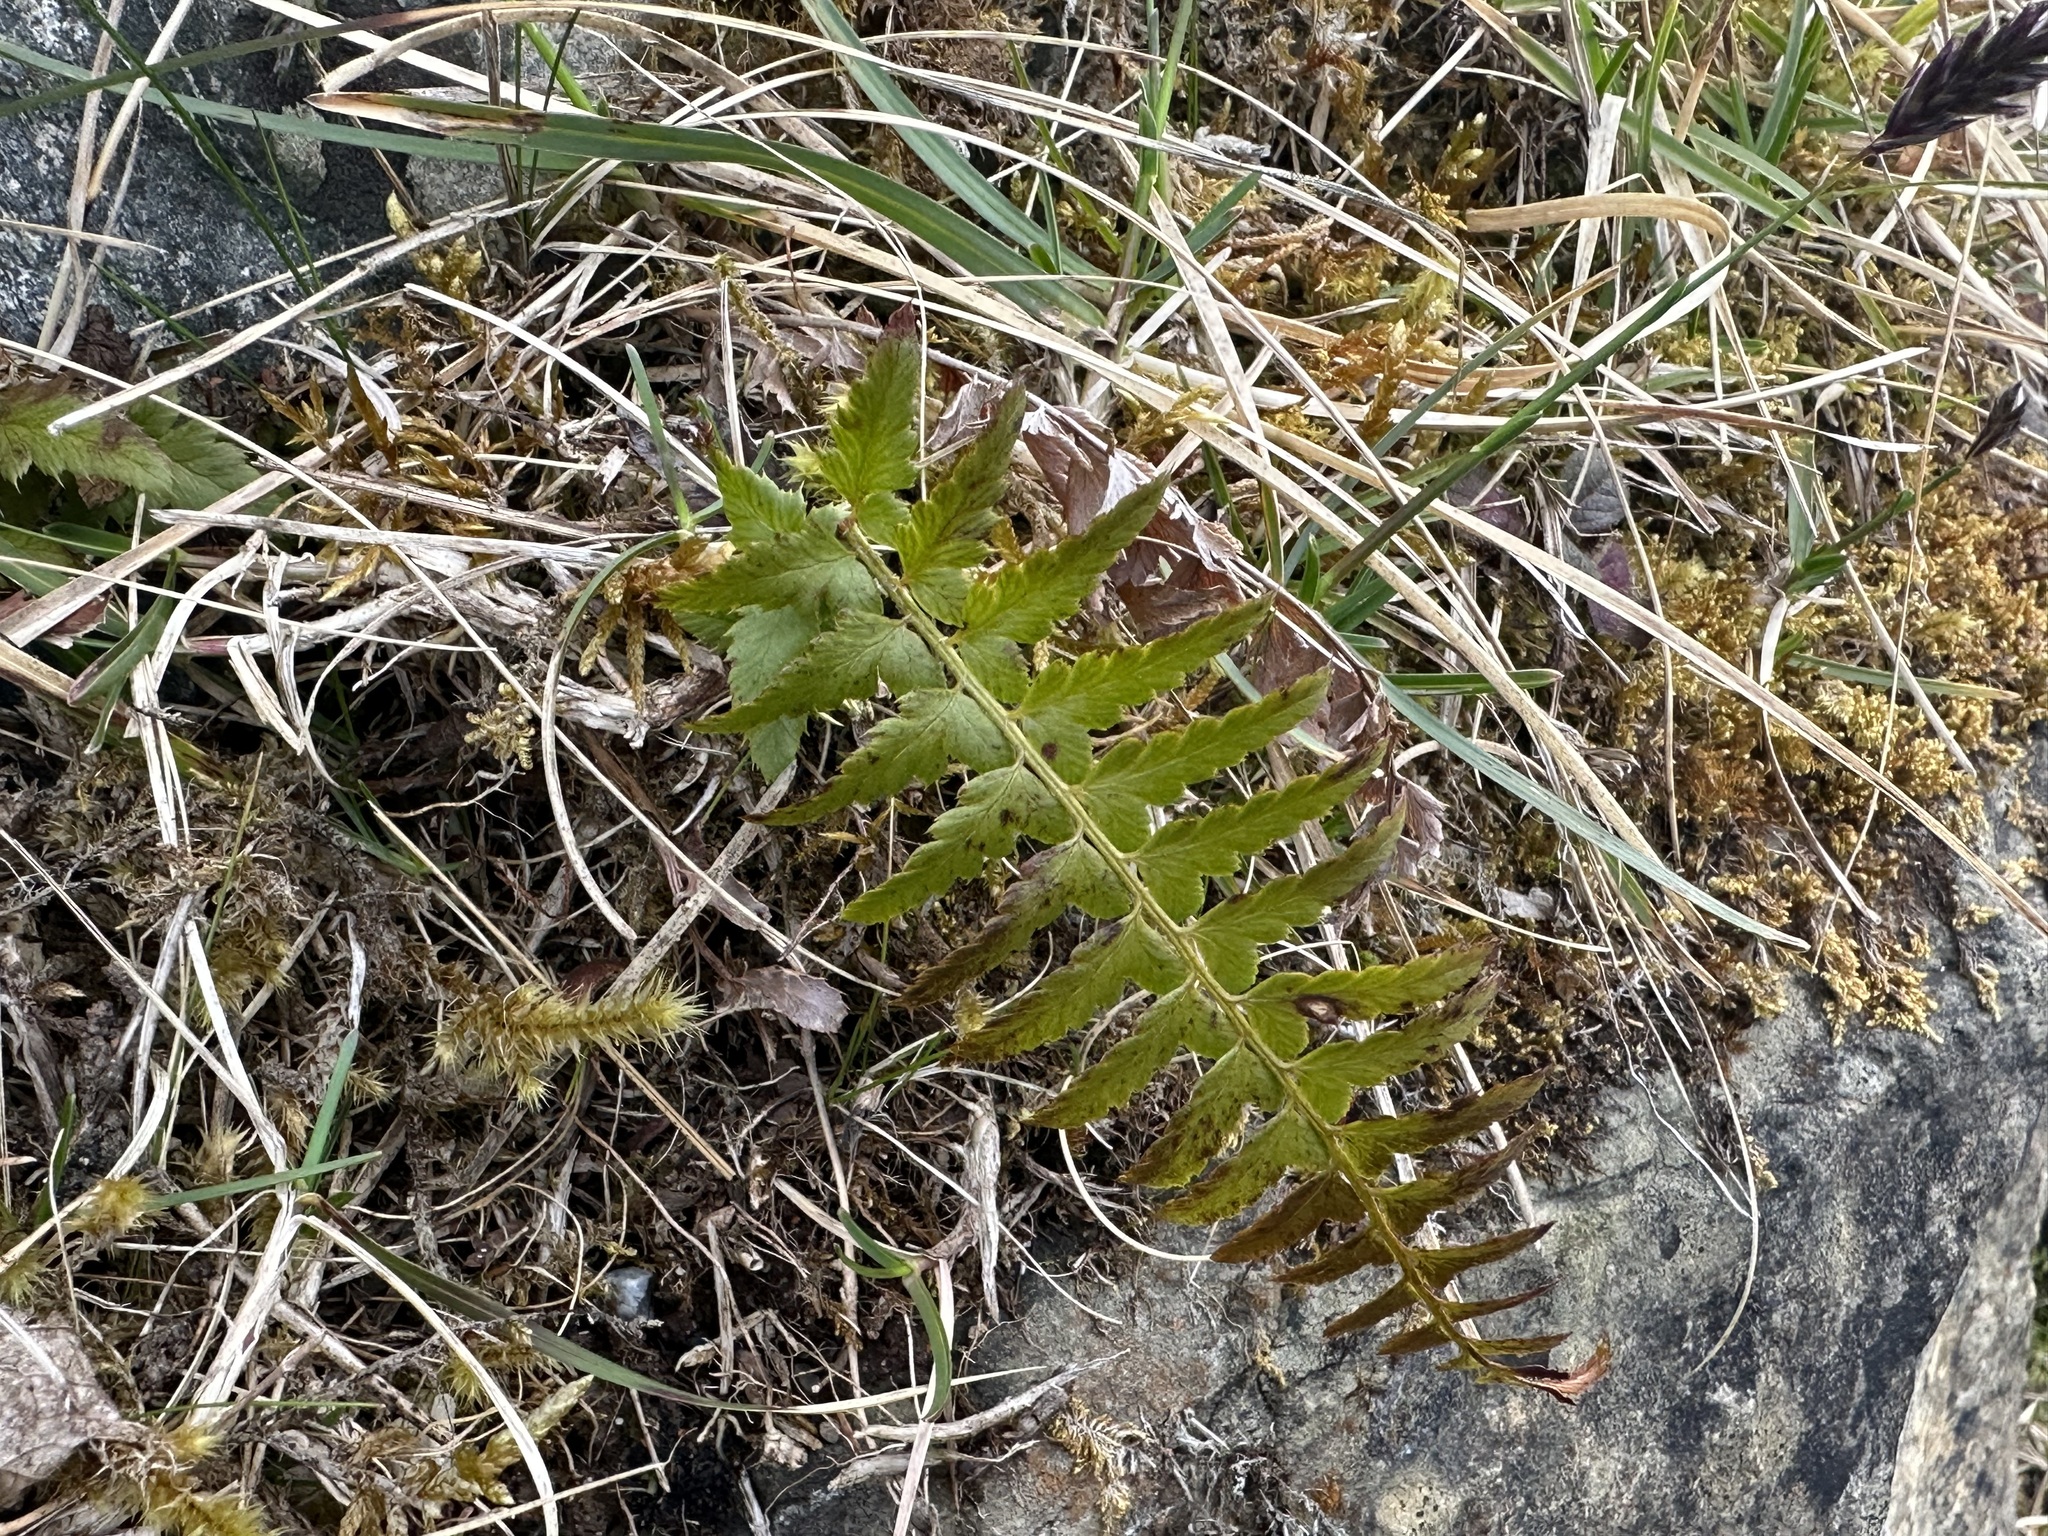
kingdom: Plantae
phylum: Tracheophyta
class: Polypodiopsida
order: Polypodiales
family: Dryopteridaceae
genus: Polystichum
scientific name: Polystichum aculeatum
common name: Hard shield-fern
